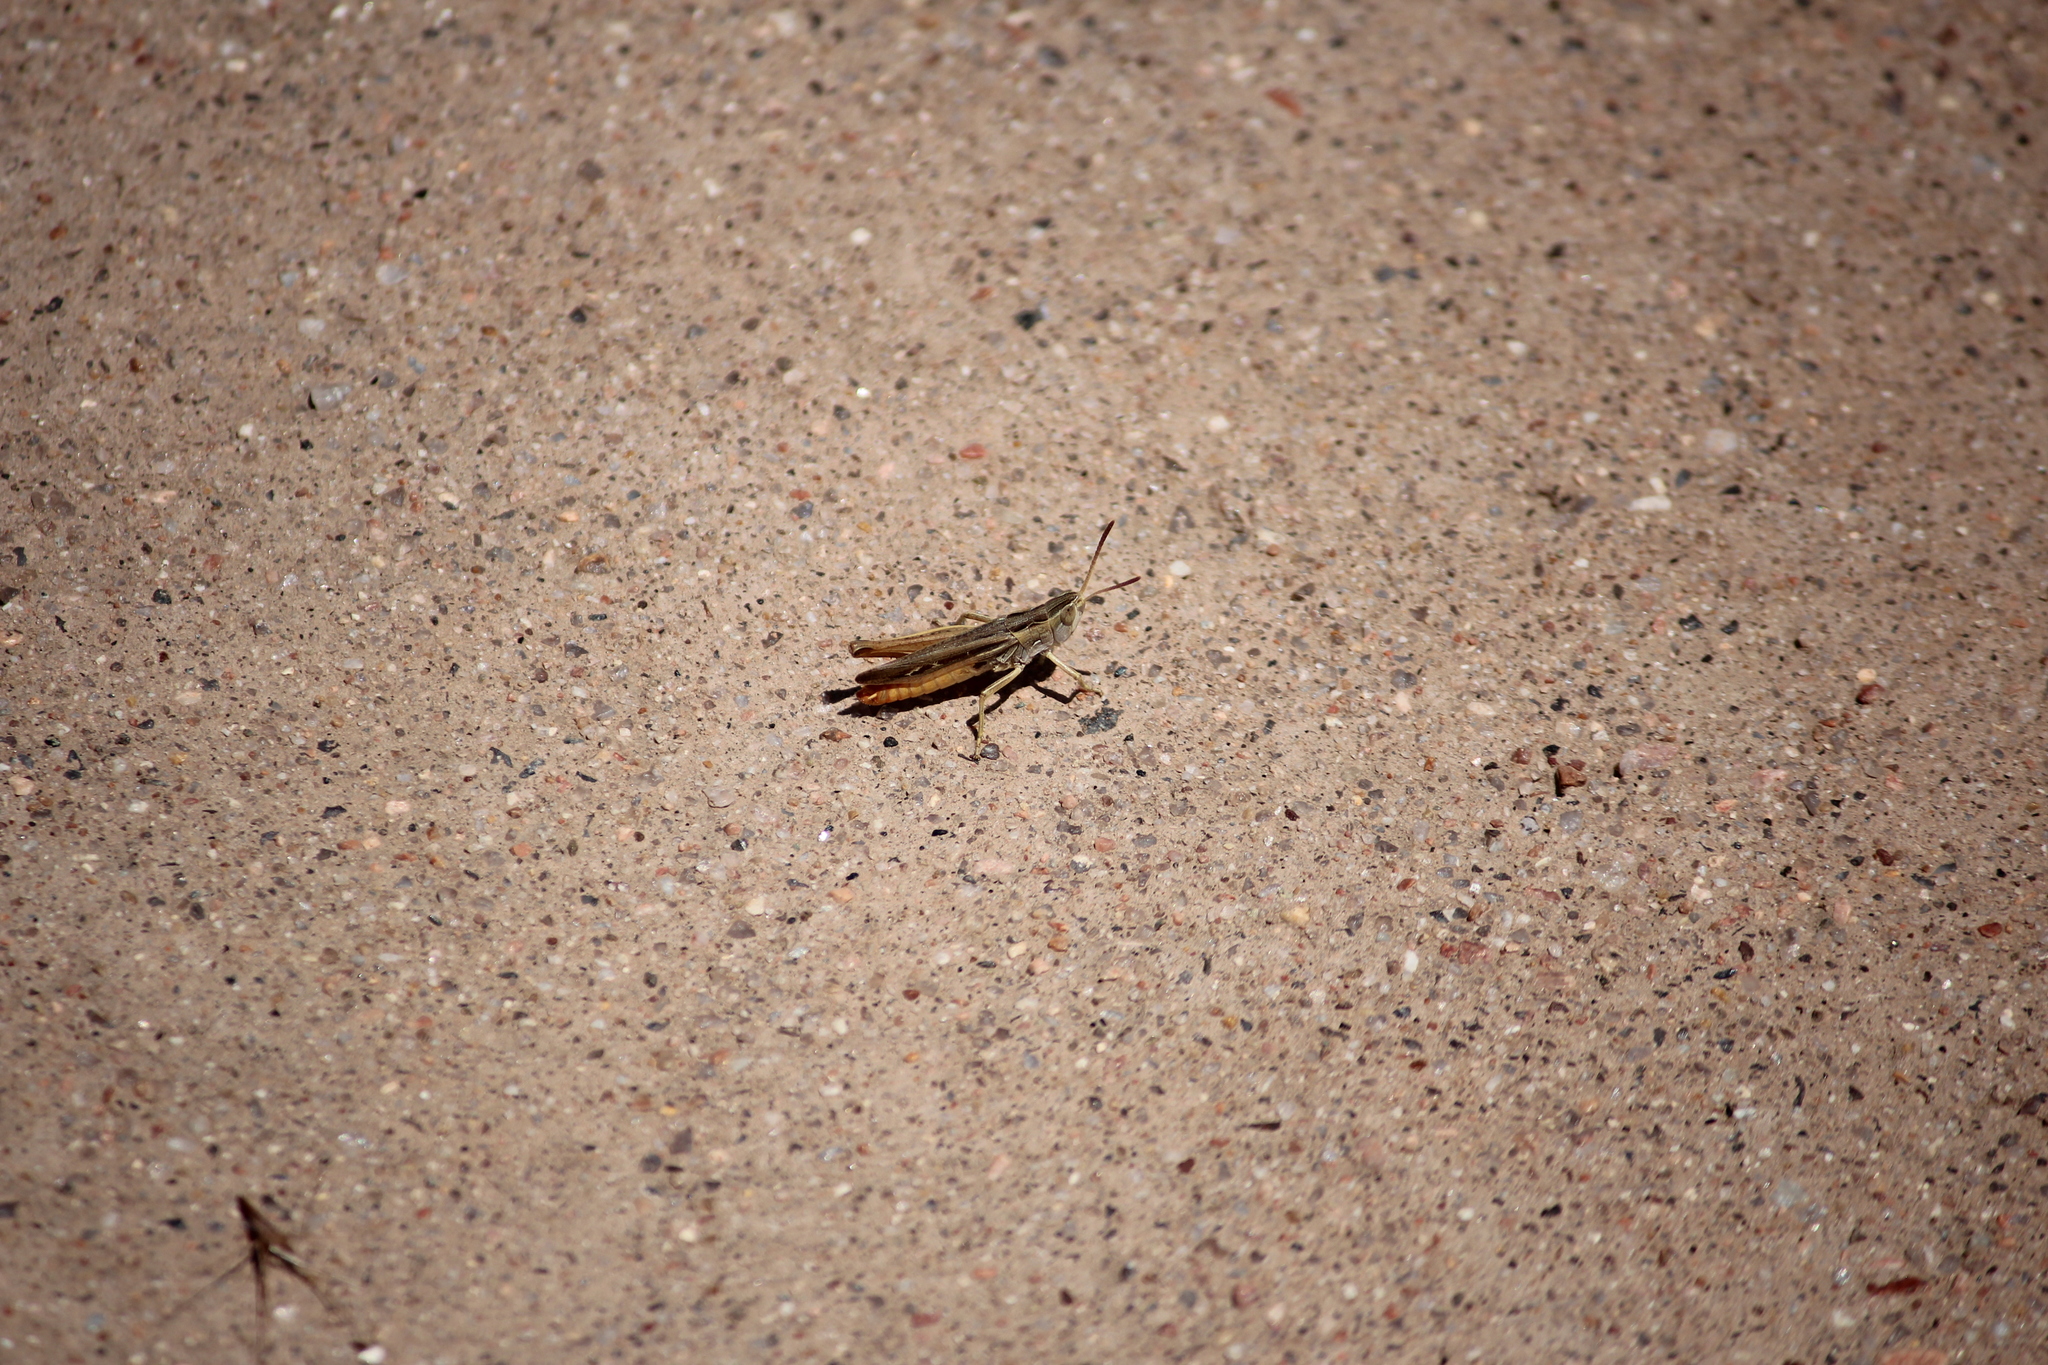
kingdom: Animalia
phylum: Arthropoda
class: Insecta
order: Orthoptera
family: Acrididae
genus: Eritettix
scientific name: Eritettix simplex
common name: Velvet-striped grasshopper
